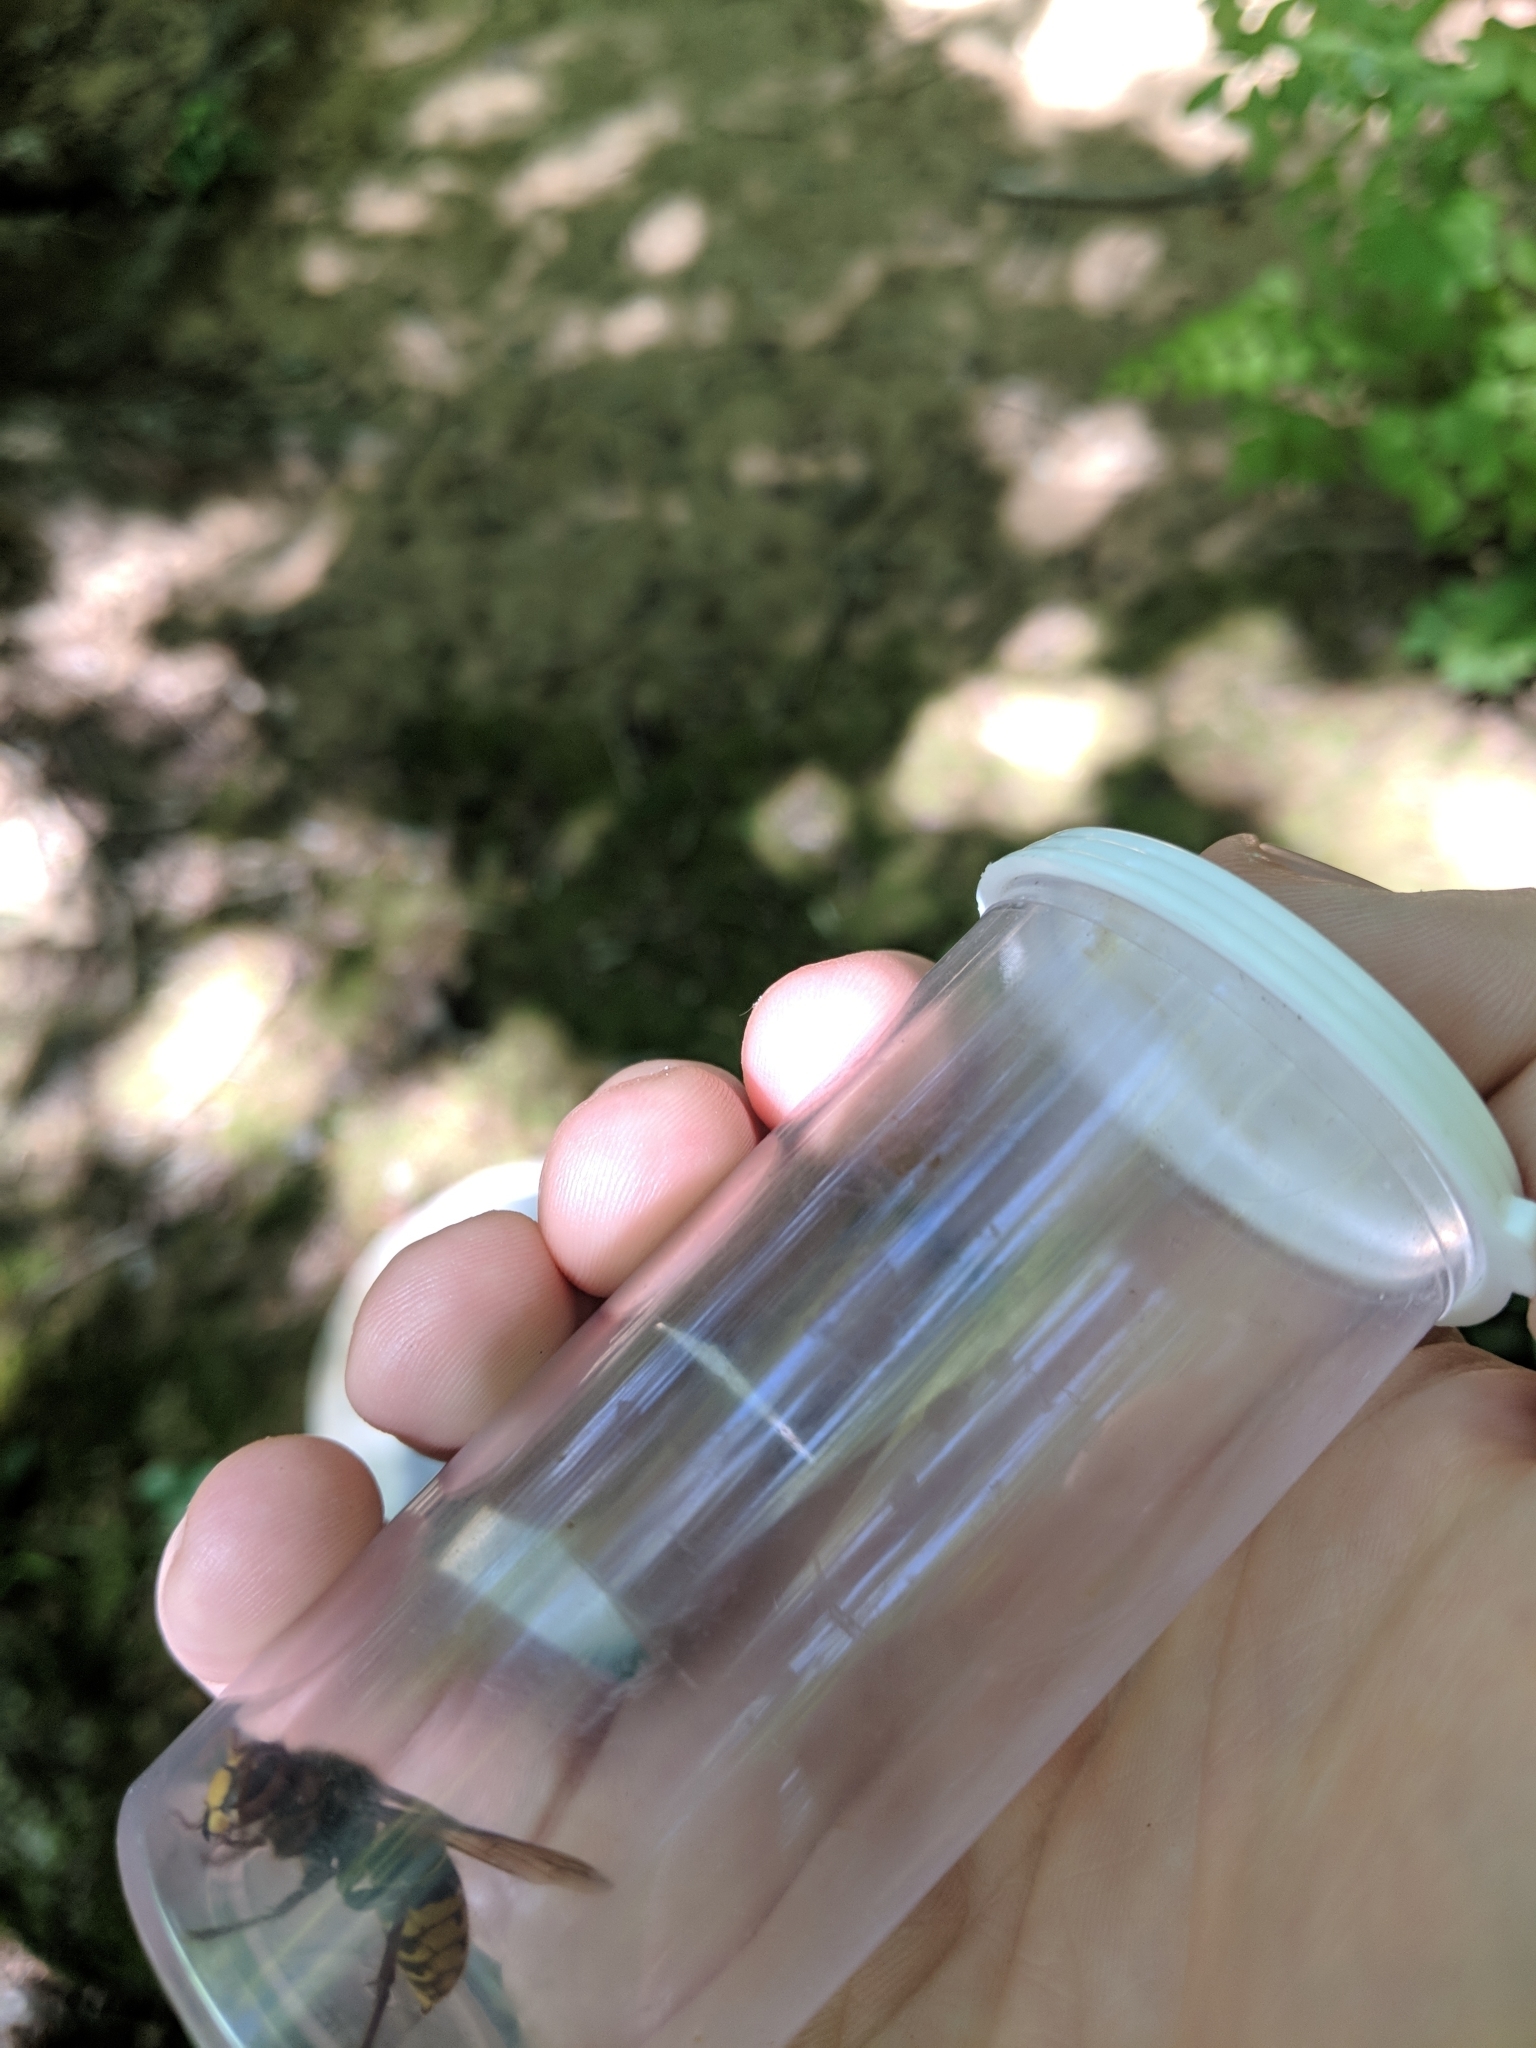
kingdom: Animalia
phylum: Arthropoda
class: Insecta
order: Hymenoptera
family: Vespidae
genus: Vespa
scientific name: Vespa crabro
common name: Hornet
